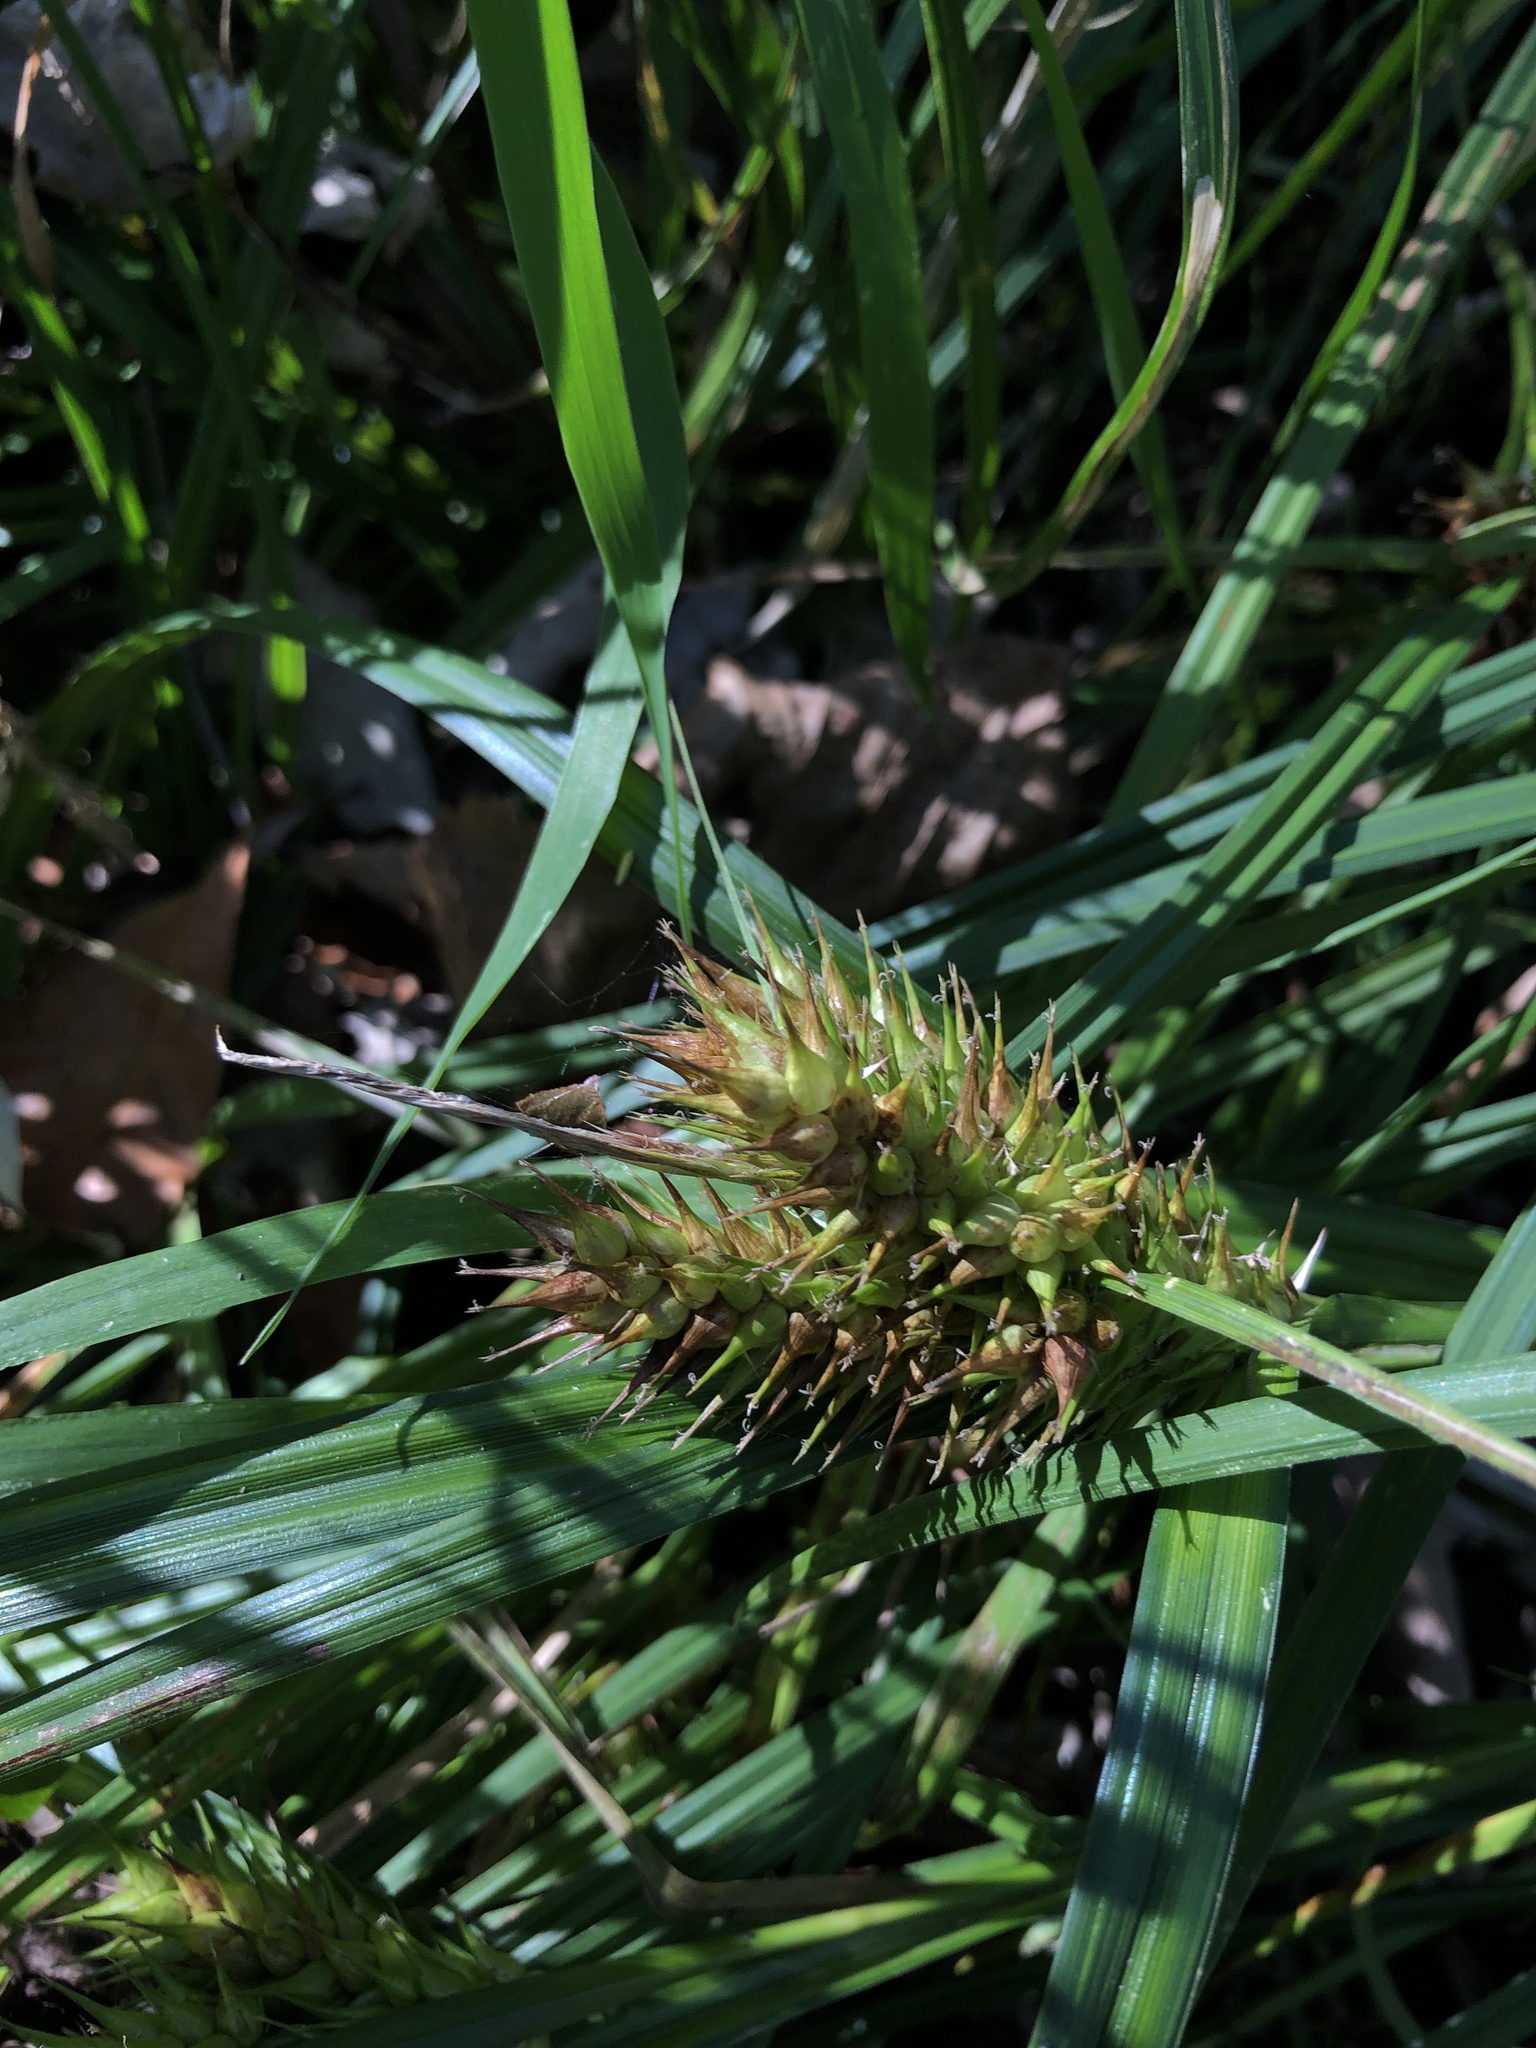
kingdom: Plantae
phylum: Tracheophyta
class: Liliopsida
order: Poales
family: Cyperaceae
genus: Carex
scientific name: Carex lupulina
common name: Hop sedge
